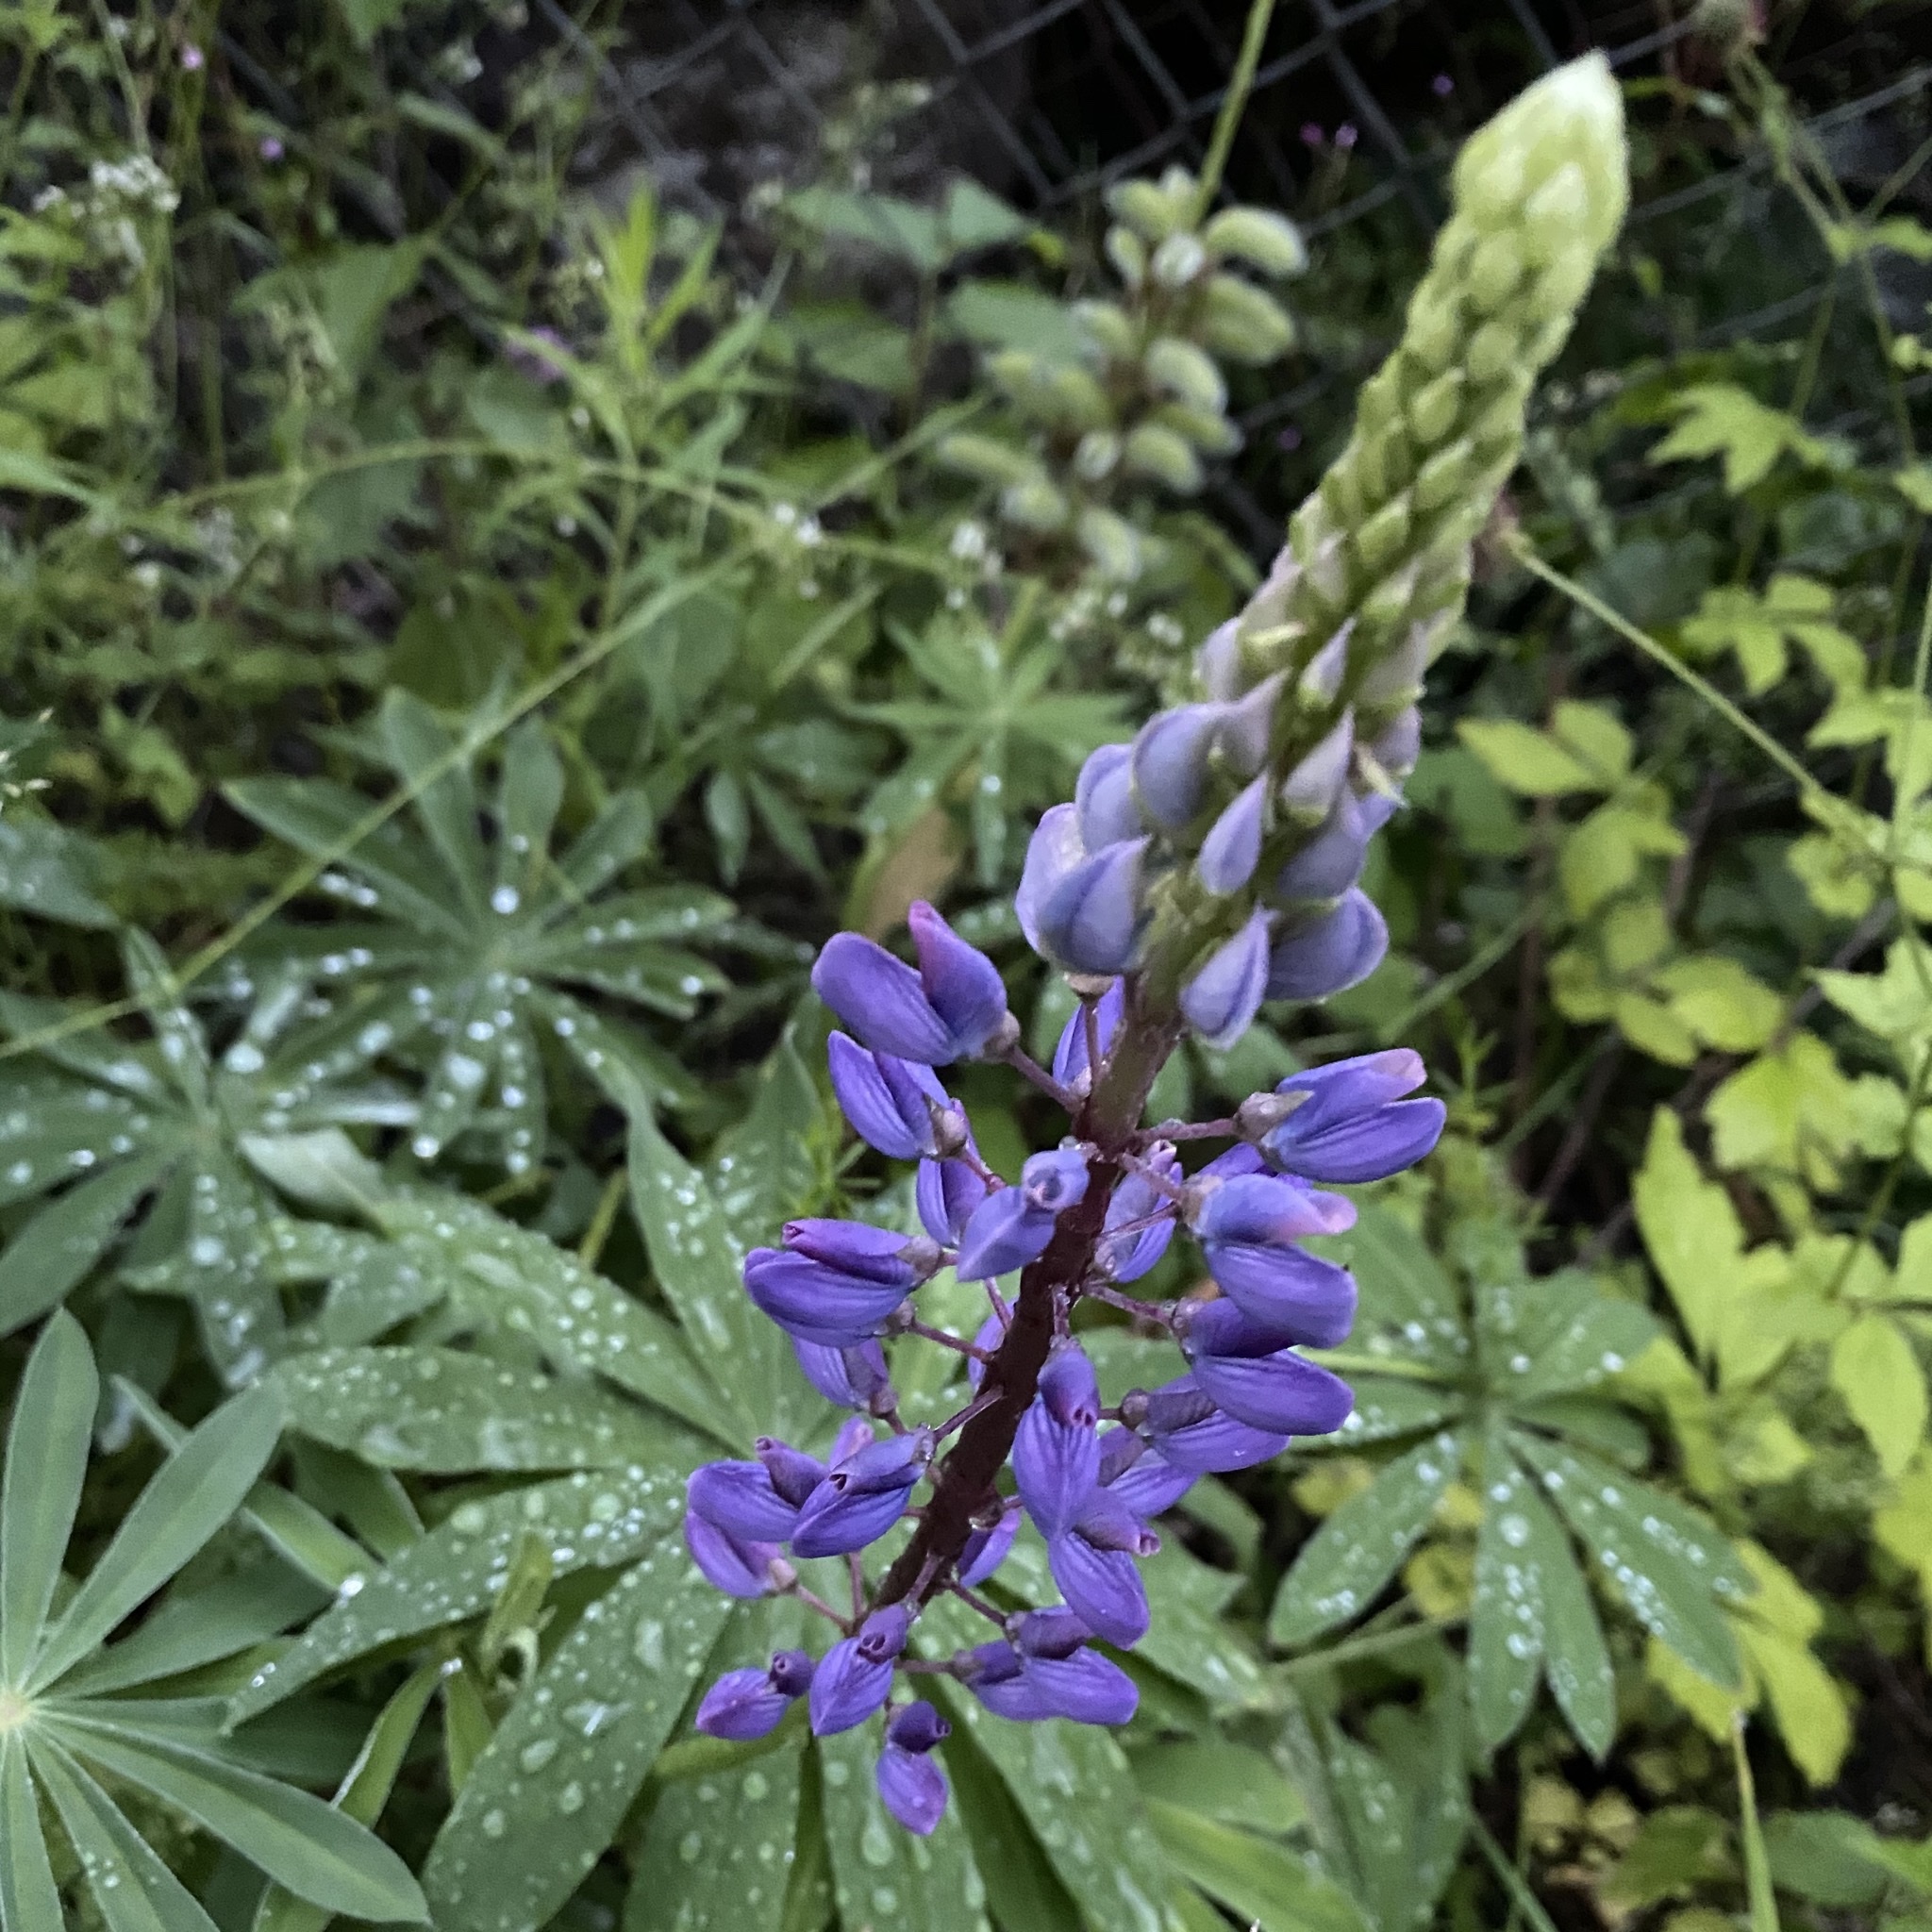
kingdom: Plantae
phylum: Tracheophyta
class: Magnoliopsida
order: Fabales
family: Fabaceae
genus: Lupinus
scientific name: Lupinus polyphyllus
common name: Garden lupin
